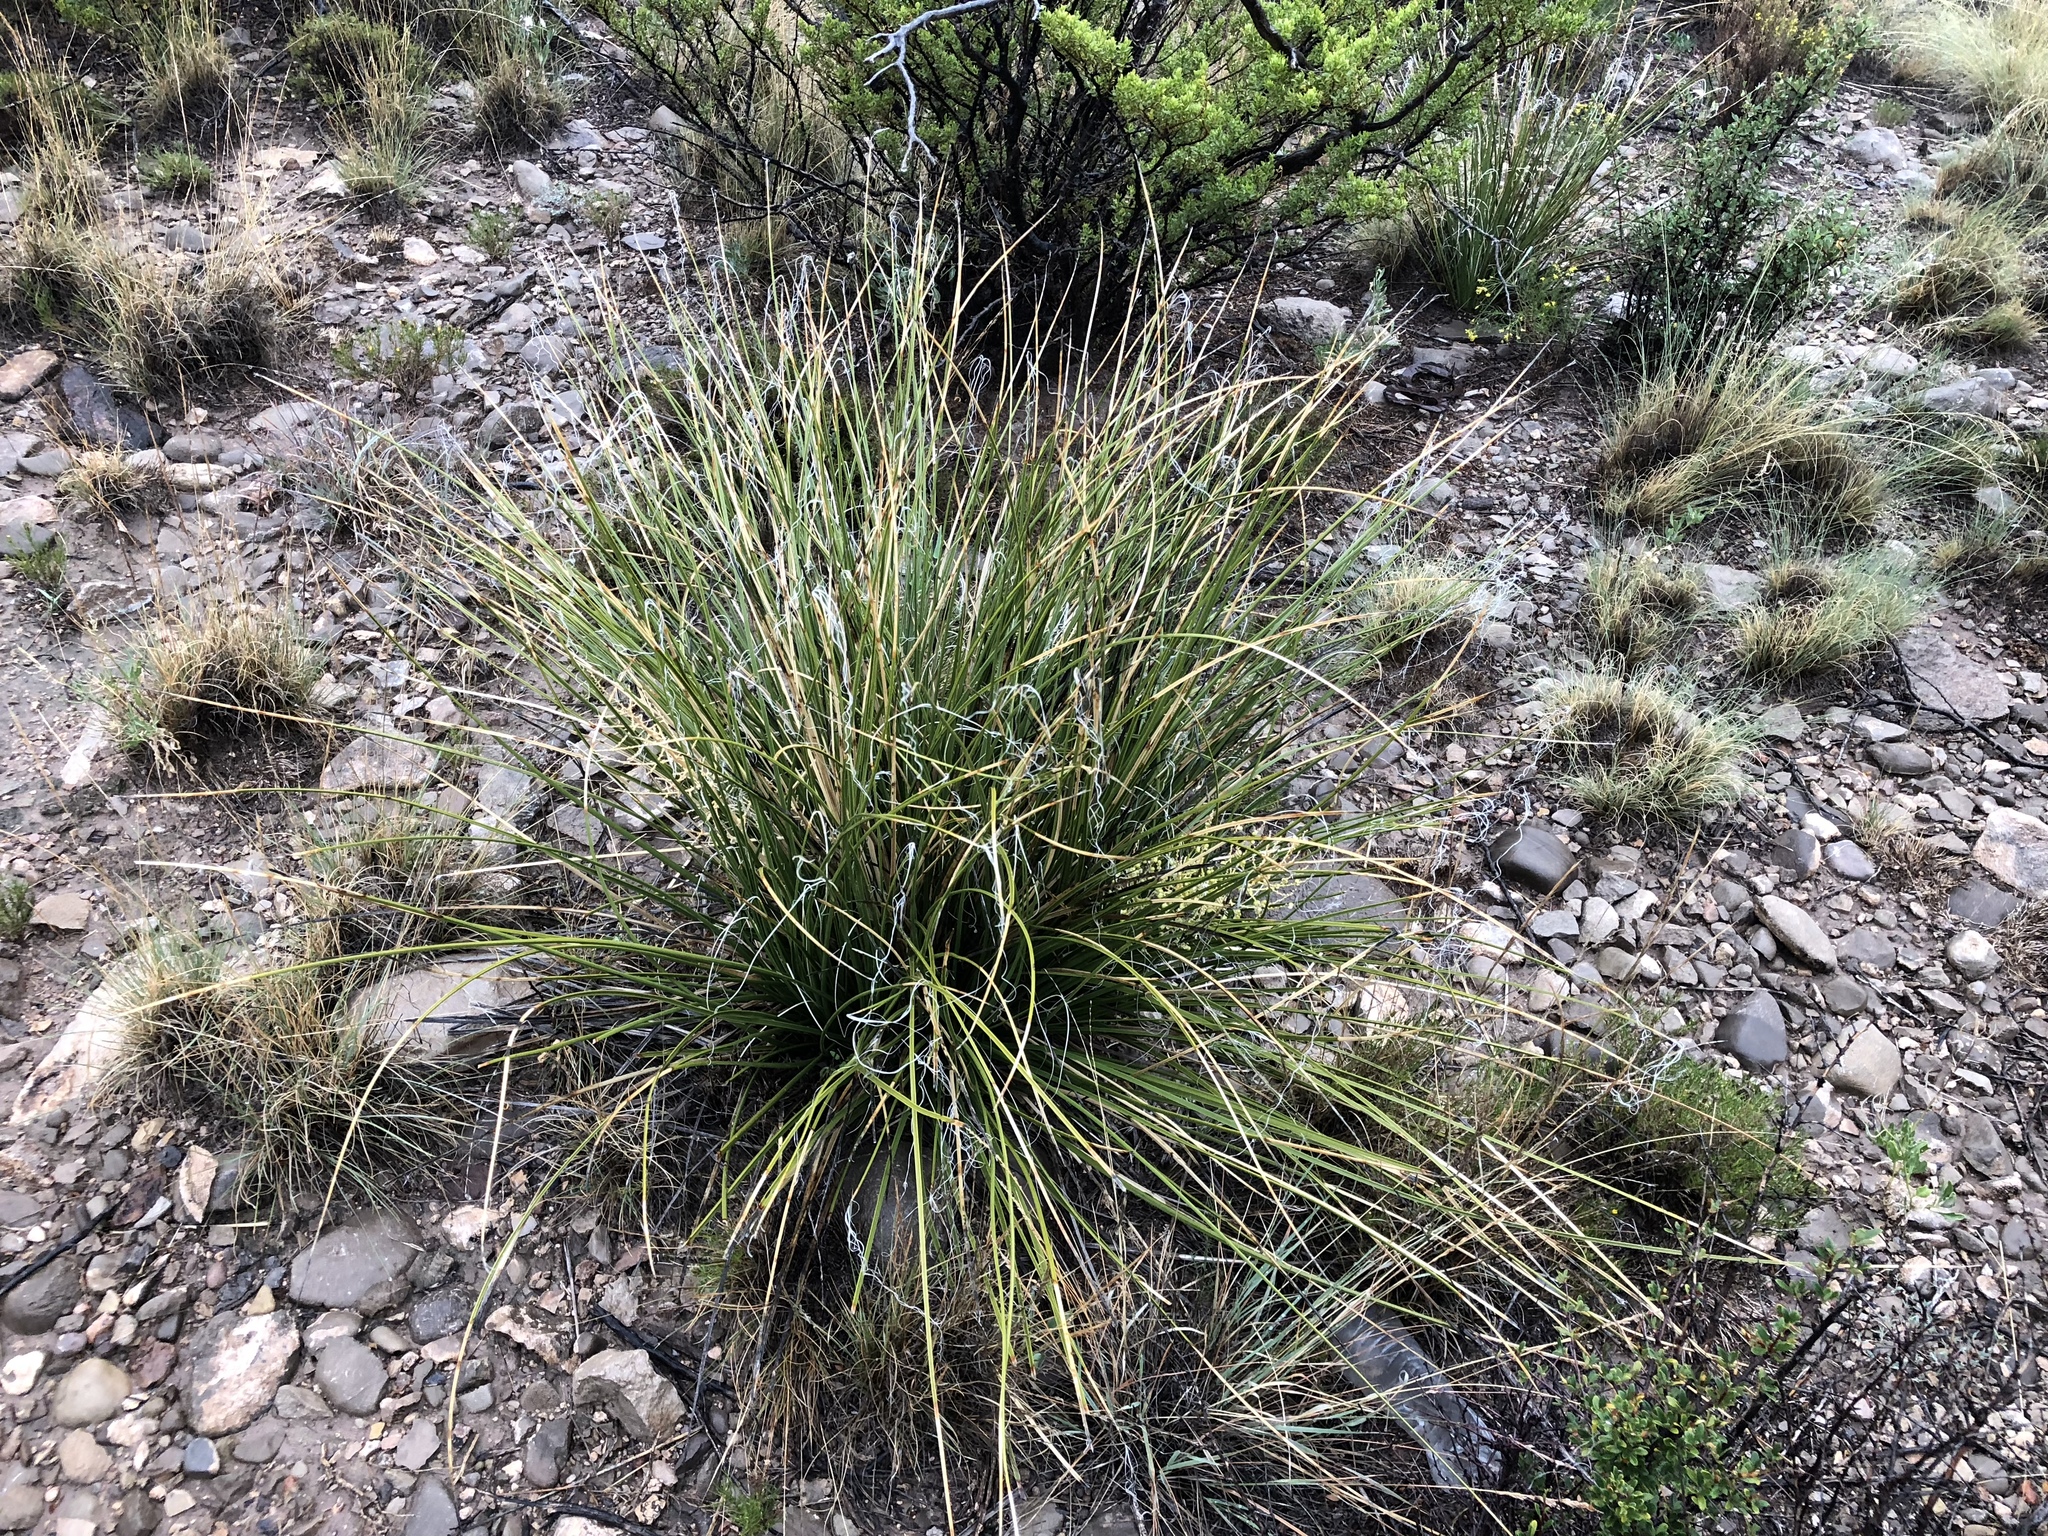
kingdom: Plantae
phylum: Tracheophyta
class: Liliopsida
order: Asparagales
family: Asparagaceae
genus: Nolina
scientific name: Nolina microcarpa
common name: Bear-grass
